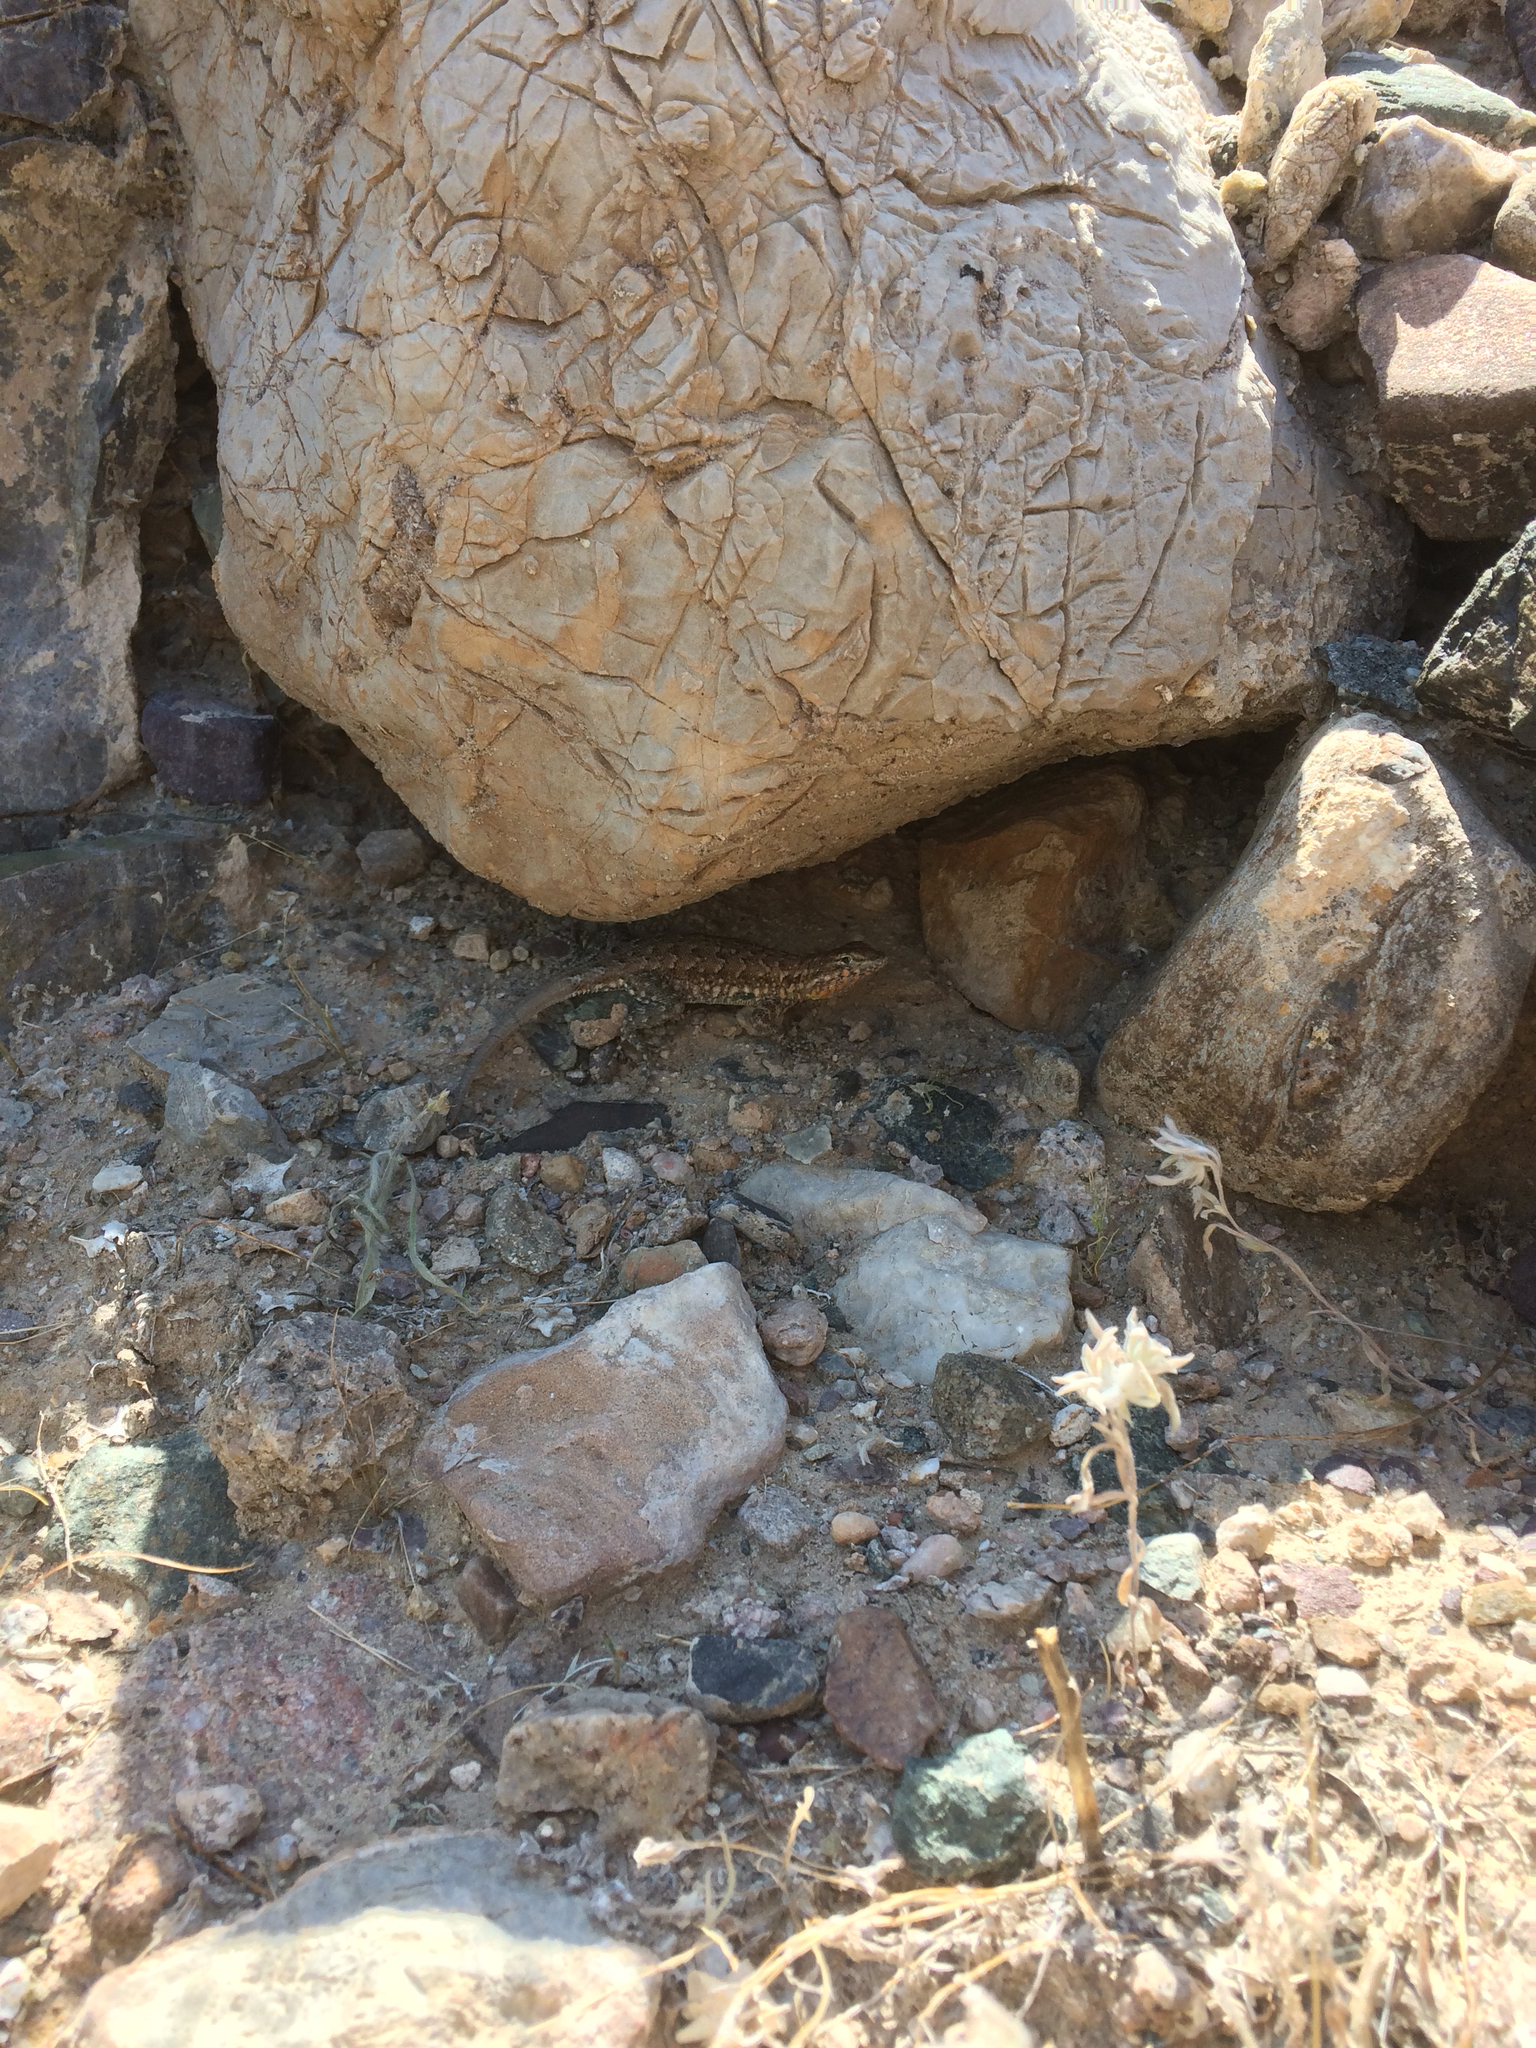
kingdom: Animalia
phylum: Chordata
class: Squamata
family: Phrynosomatidae
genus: Uta
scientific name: Uta stansburiana
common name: Side-blotched lizard
